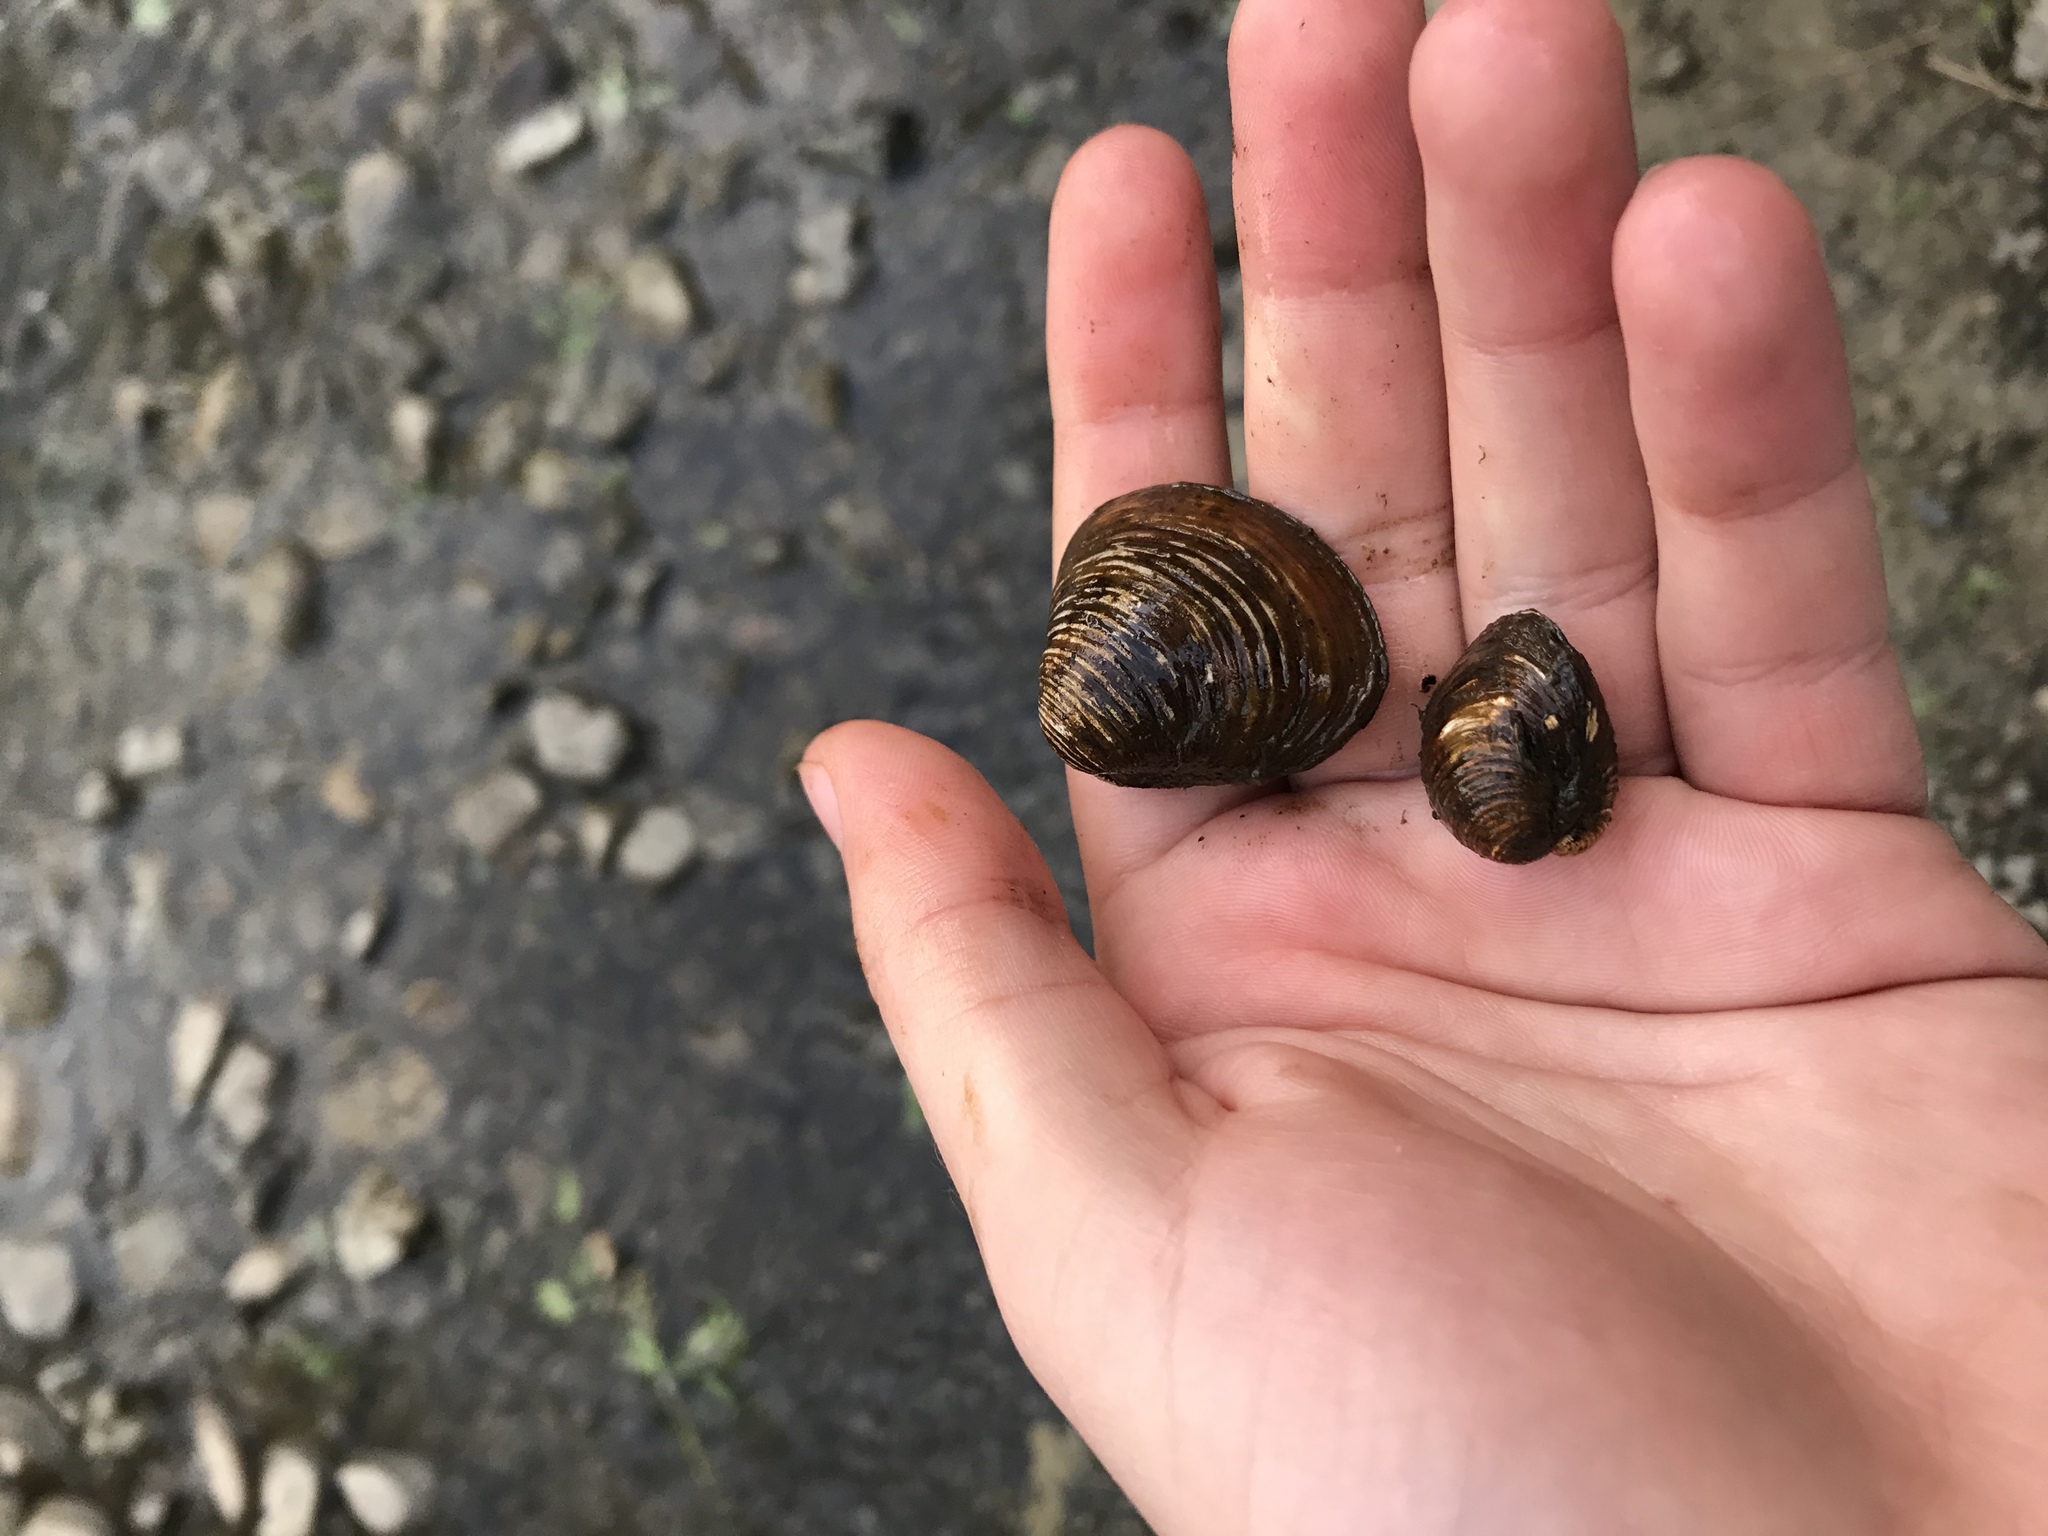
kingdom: Animalia
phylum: Mollusca
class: Bivalvia
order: Venerida
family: Cyrenidae
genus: Corbicula
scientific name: Corbicula fluminea
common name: Asian clam
